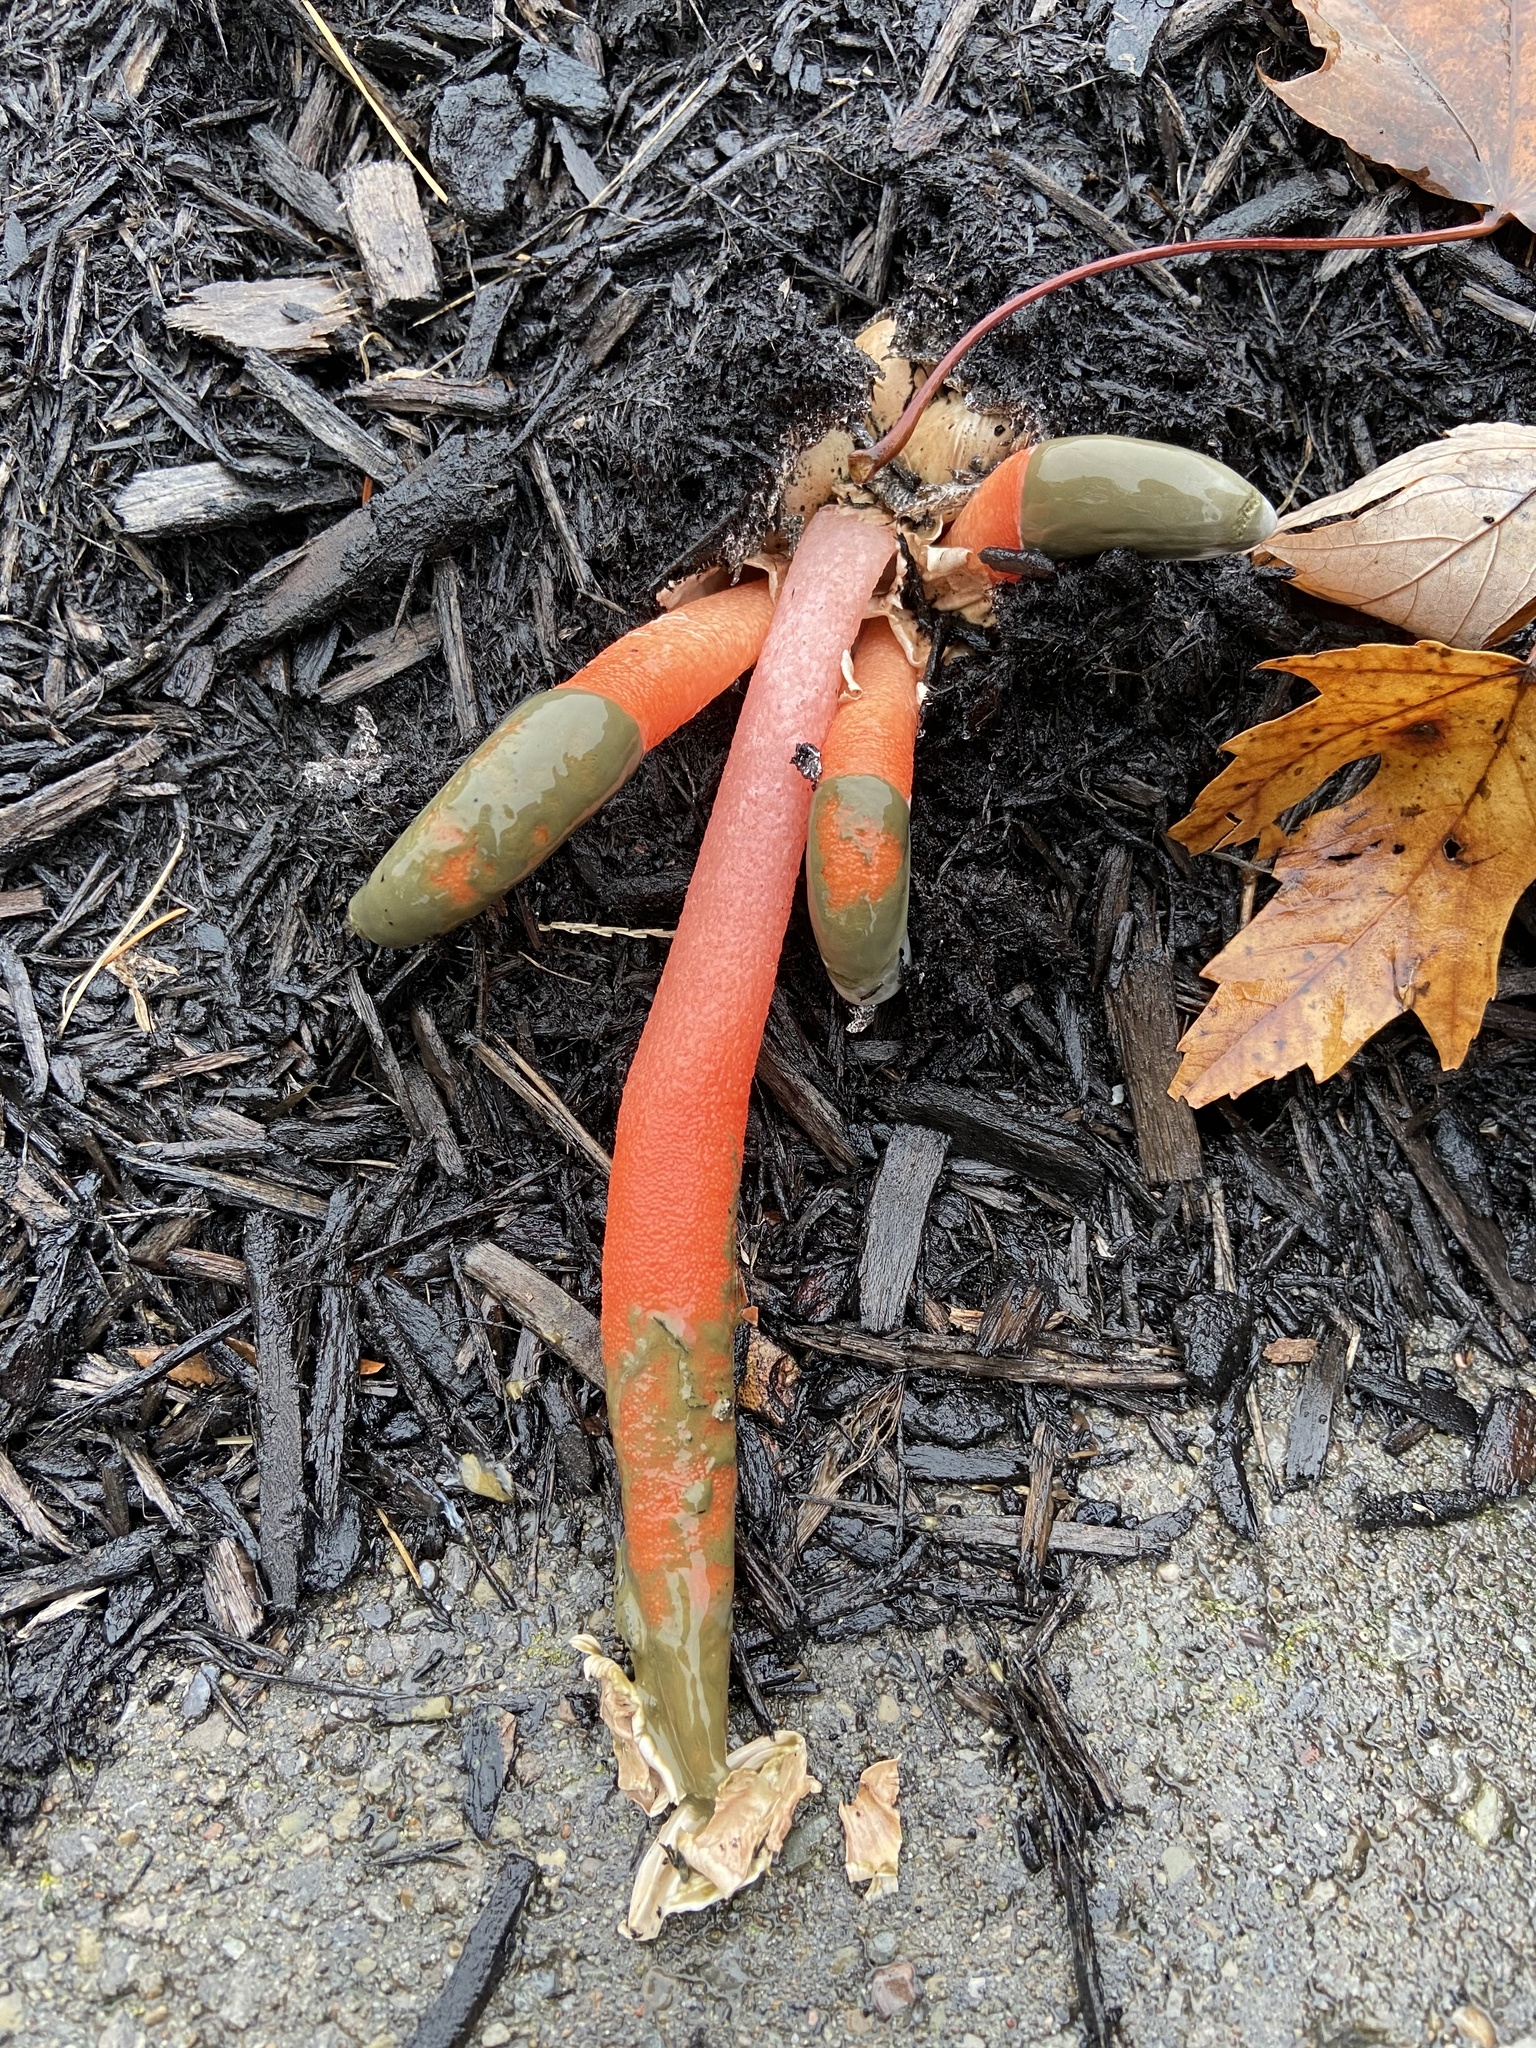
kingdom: Fungi
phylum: Basidiomycota
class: Agaricomycetes
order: Phallales
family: Phallaceae
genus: Mutinus
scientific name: Mutinus elegans
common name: Devil's dipstick
